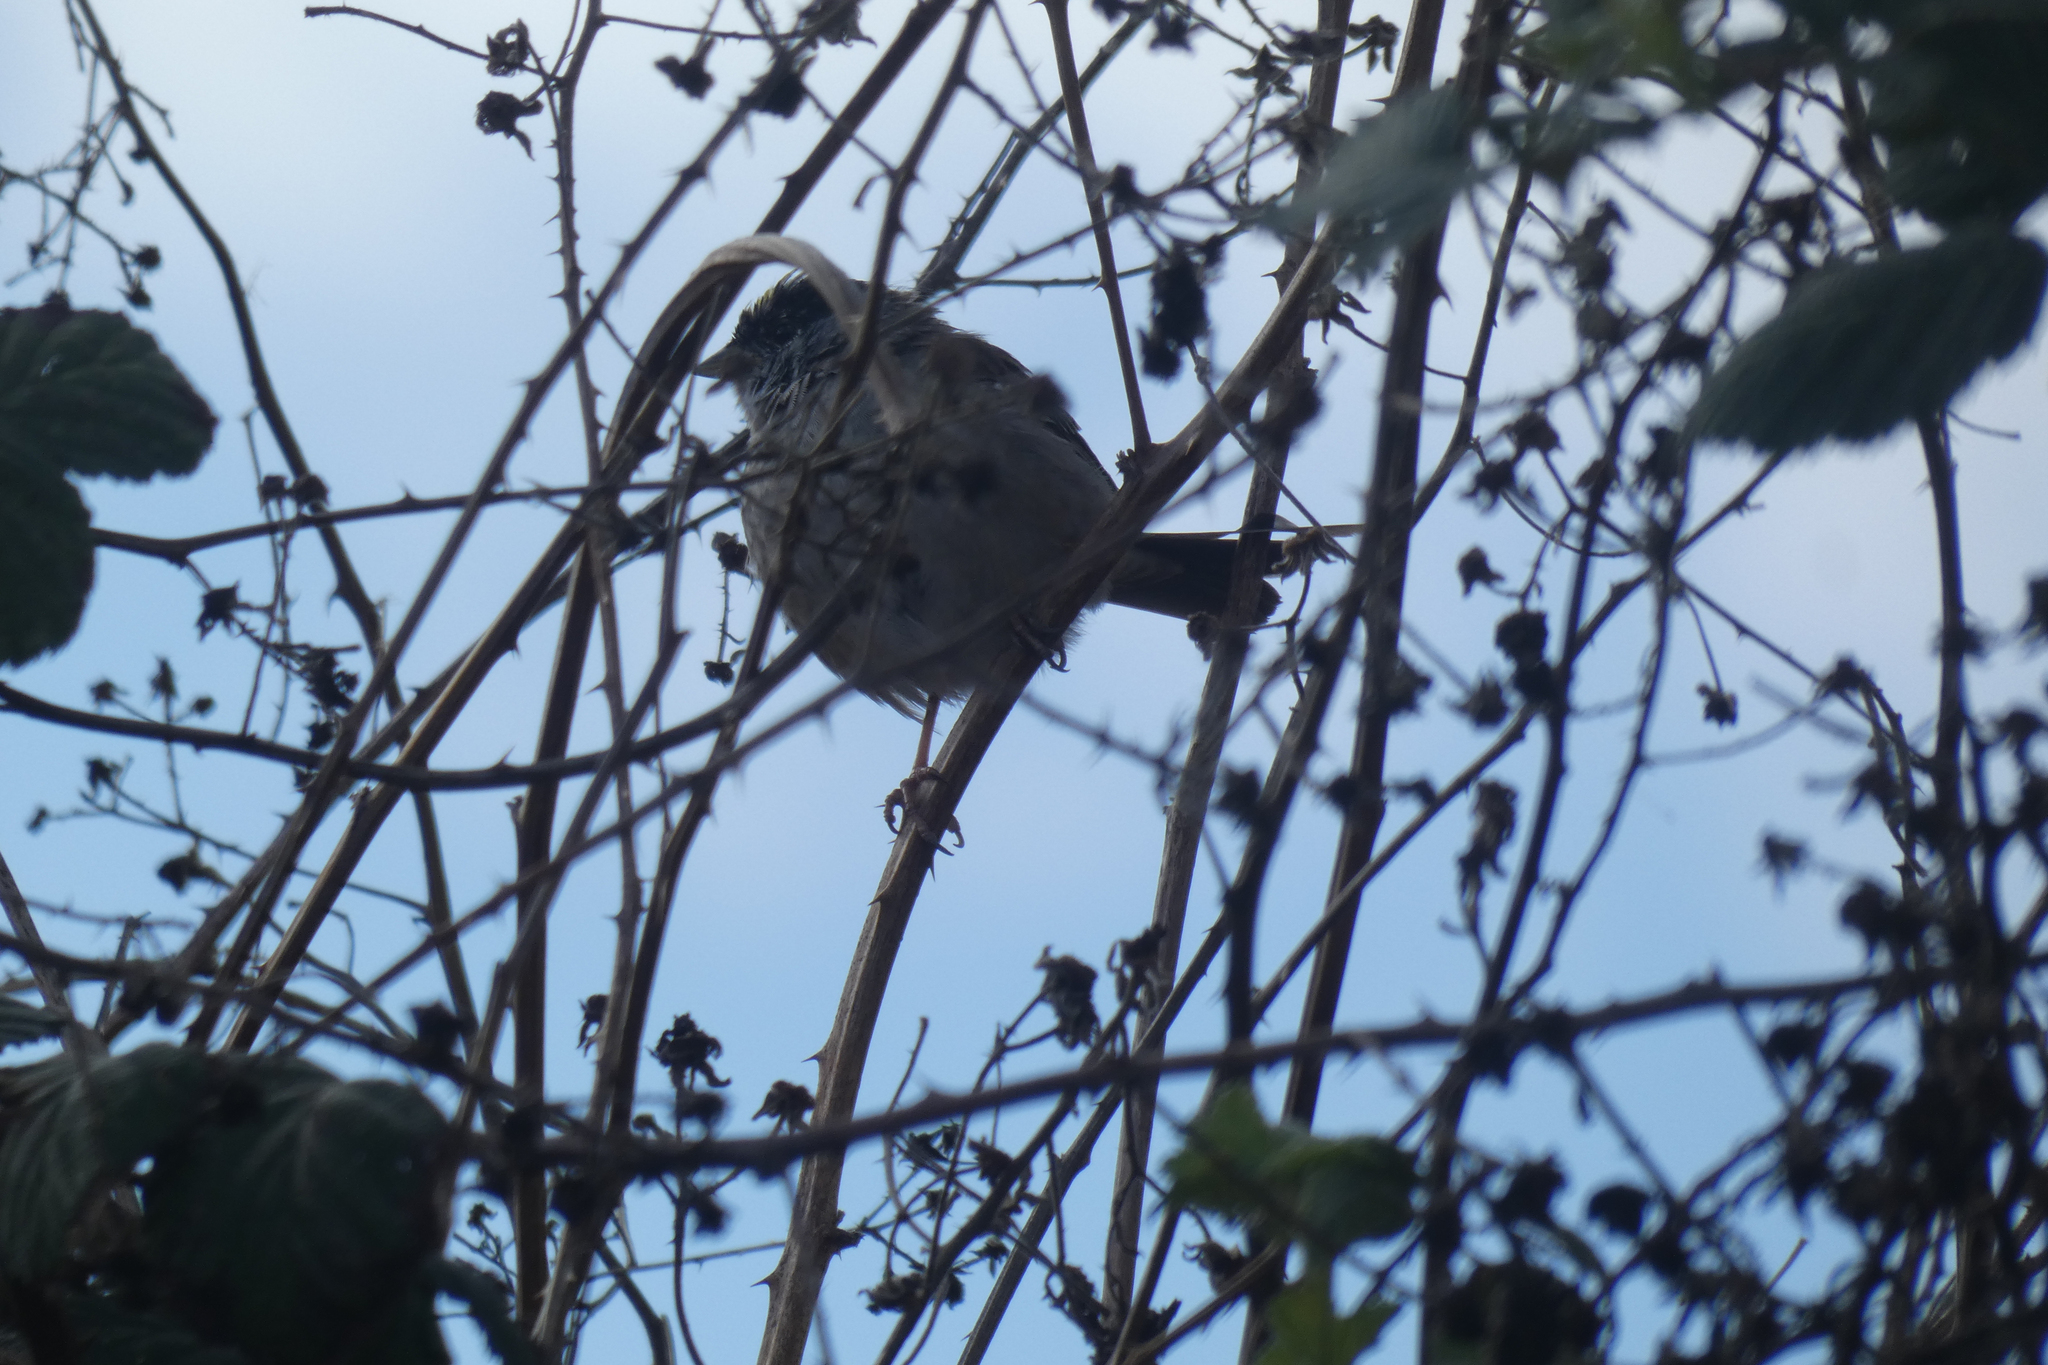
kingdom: Animalia
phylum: Chordata
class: Aves
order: Passeriformes
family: Passerellidae
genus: Zonotrichia
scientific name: Zonotrichia atricapilla
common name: Golden-crowned sparrow
